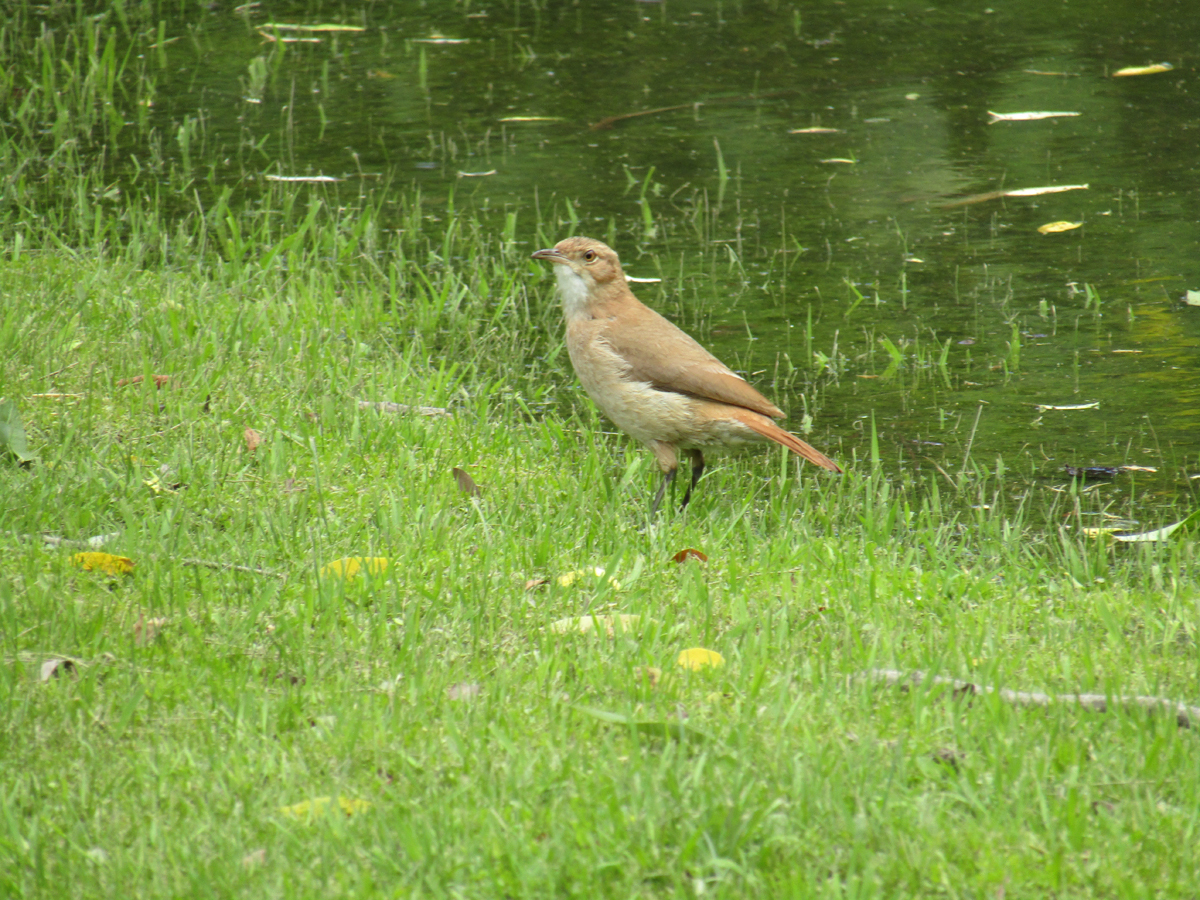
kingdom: Animalia
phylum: Chordata
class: Aves
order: Passeriformes
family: Furnariidae
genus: Furnarius
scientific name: Furnarius rufus
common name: Rufous hornero
